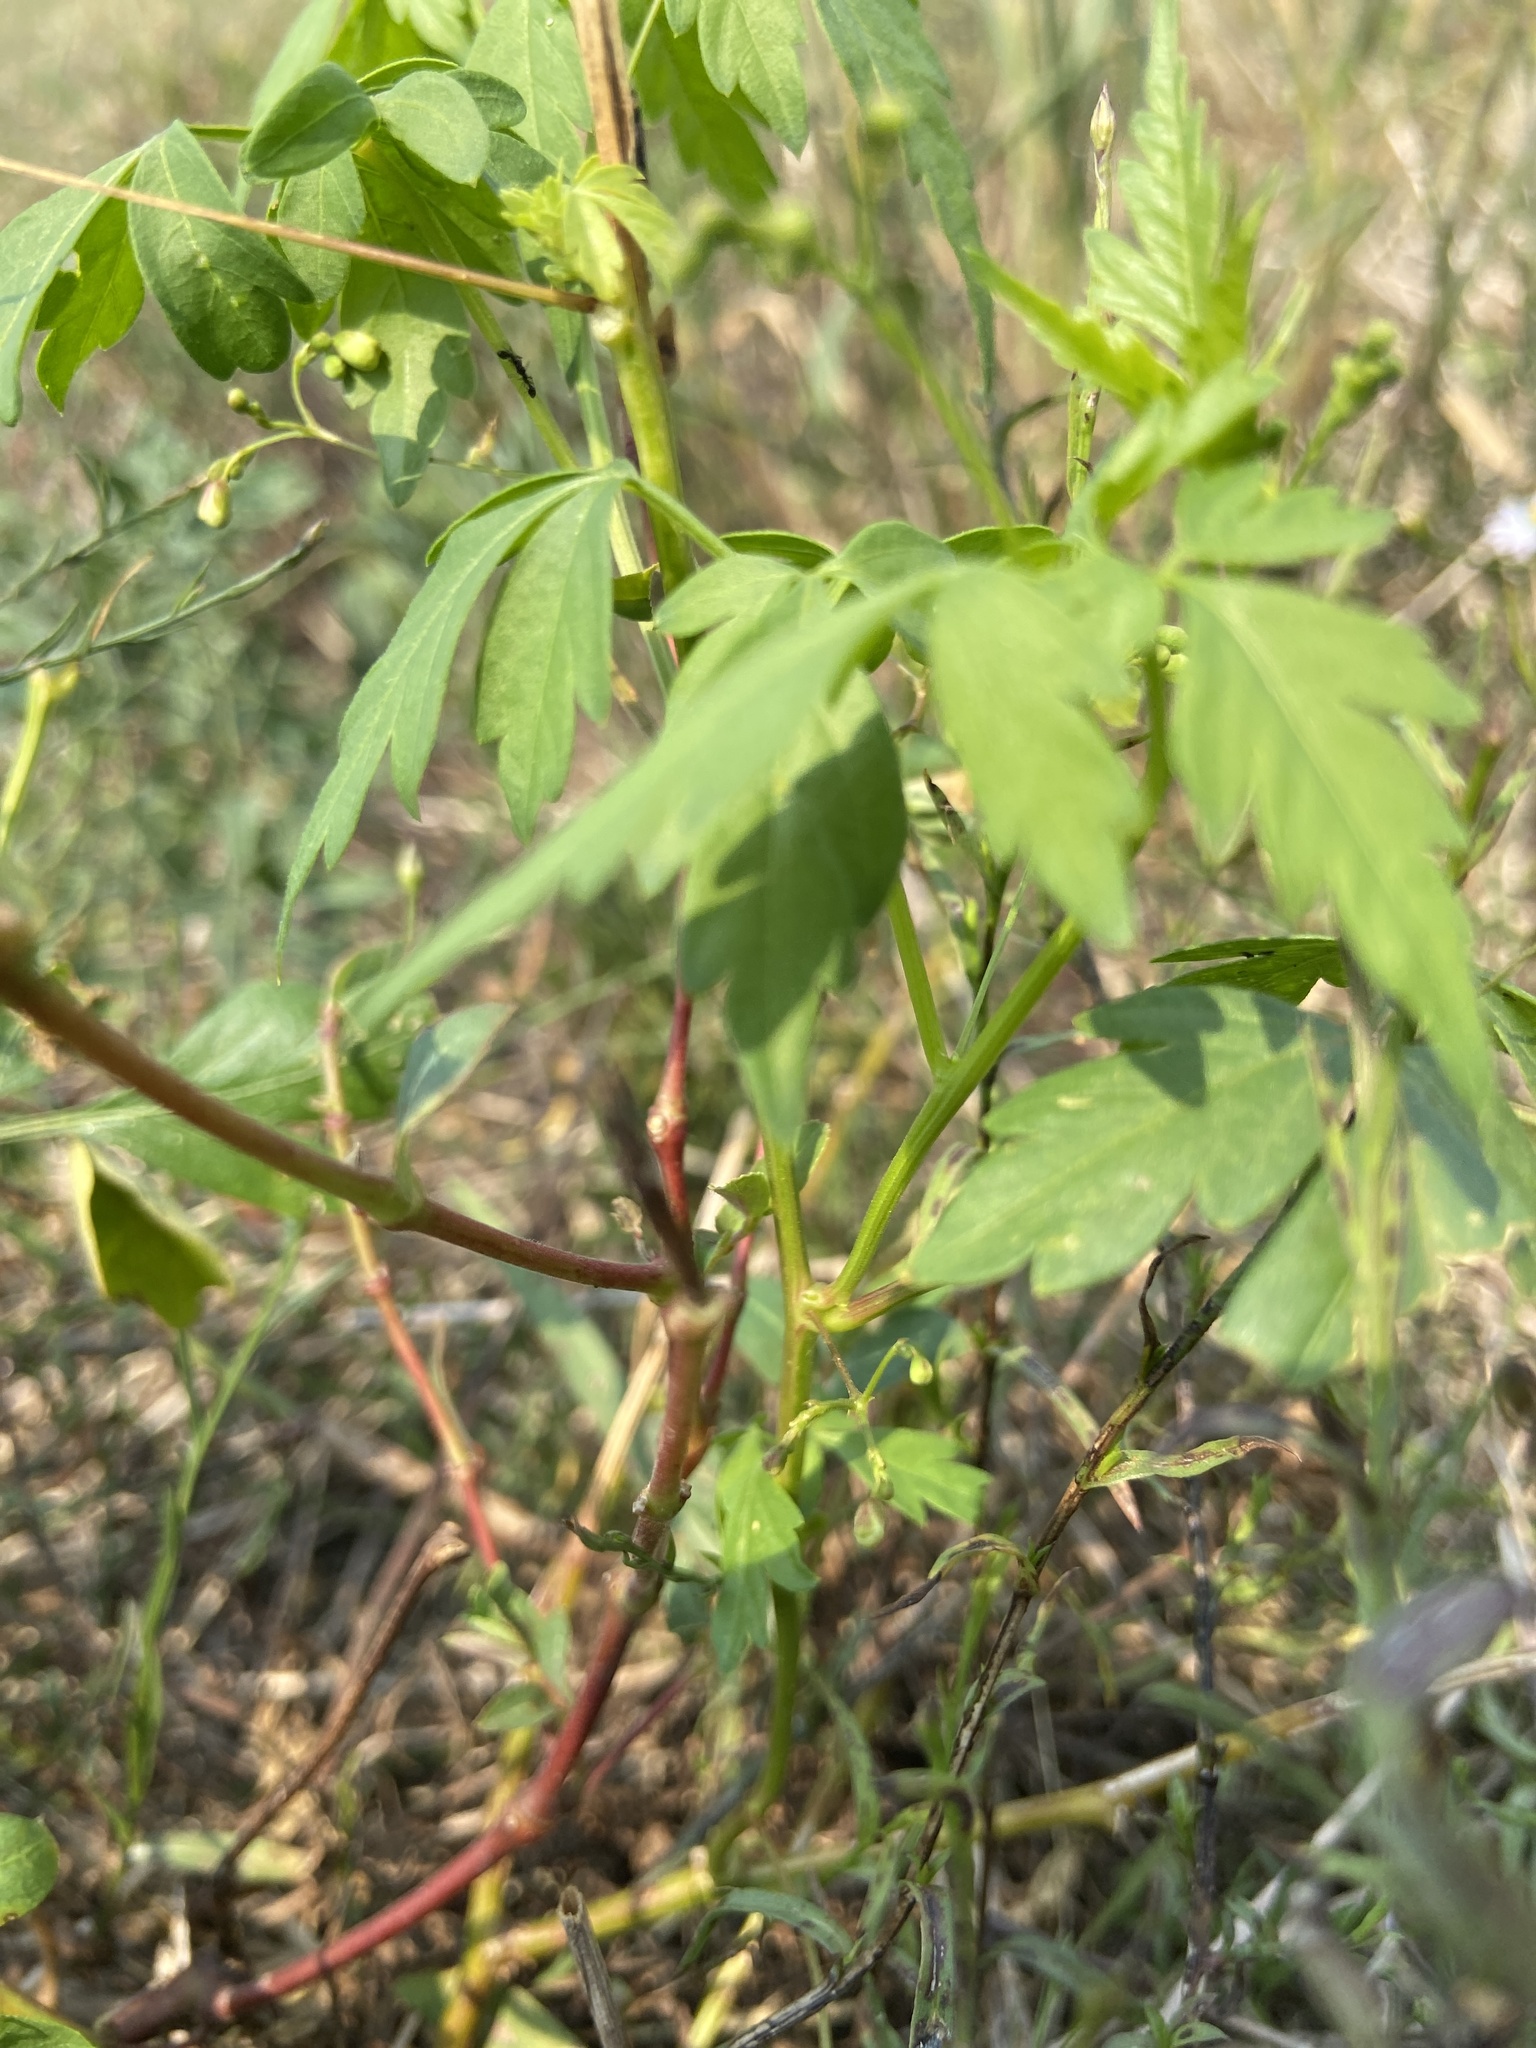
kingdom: Plantae
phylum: Tracheophyta
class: Magnoliopsida
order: Sapindales
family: Sapindaceae
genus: Cardiospermum
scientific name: Cardiospermum halicacabum
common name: Balloon vine
